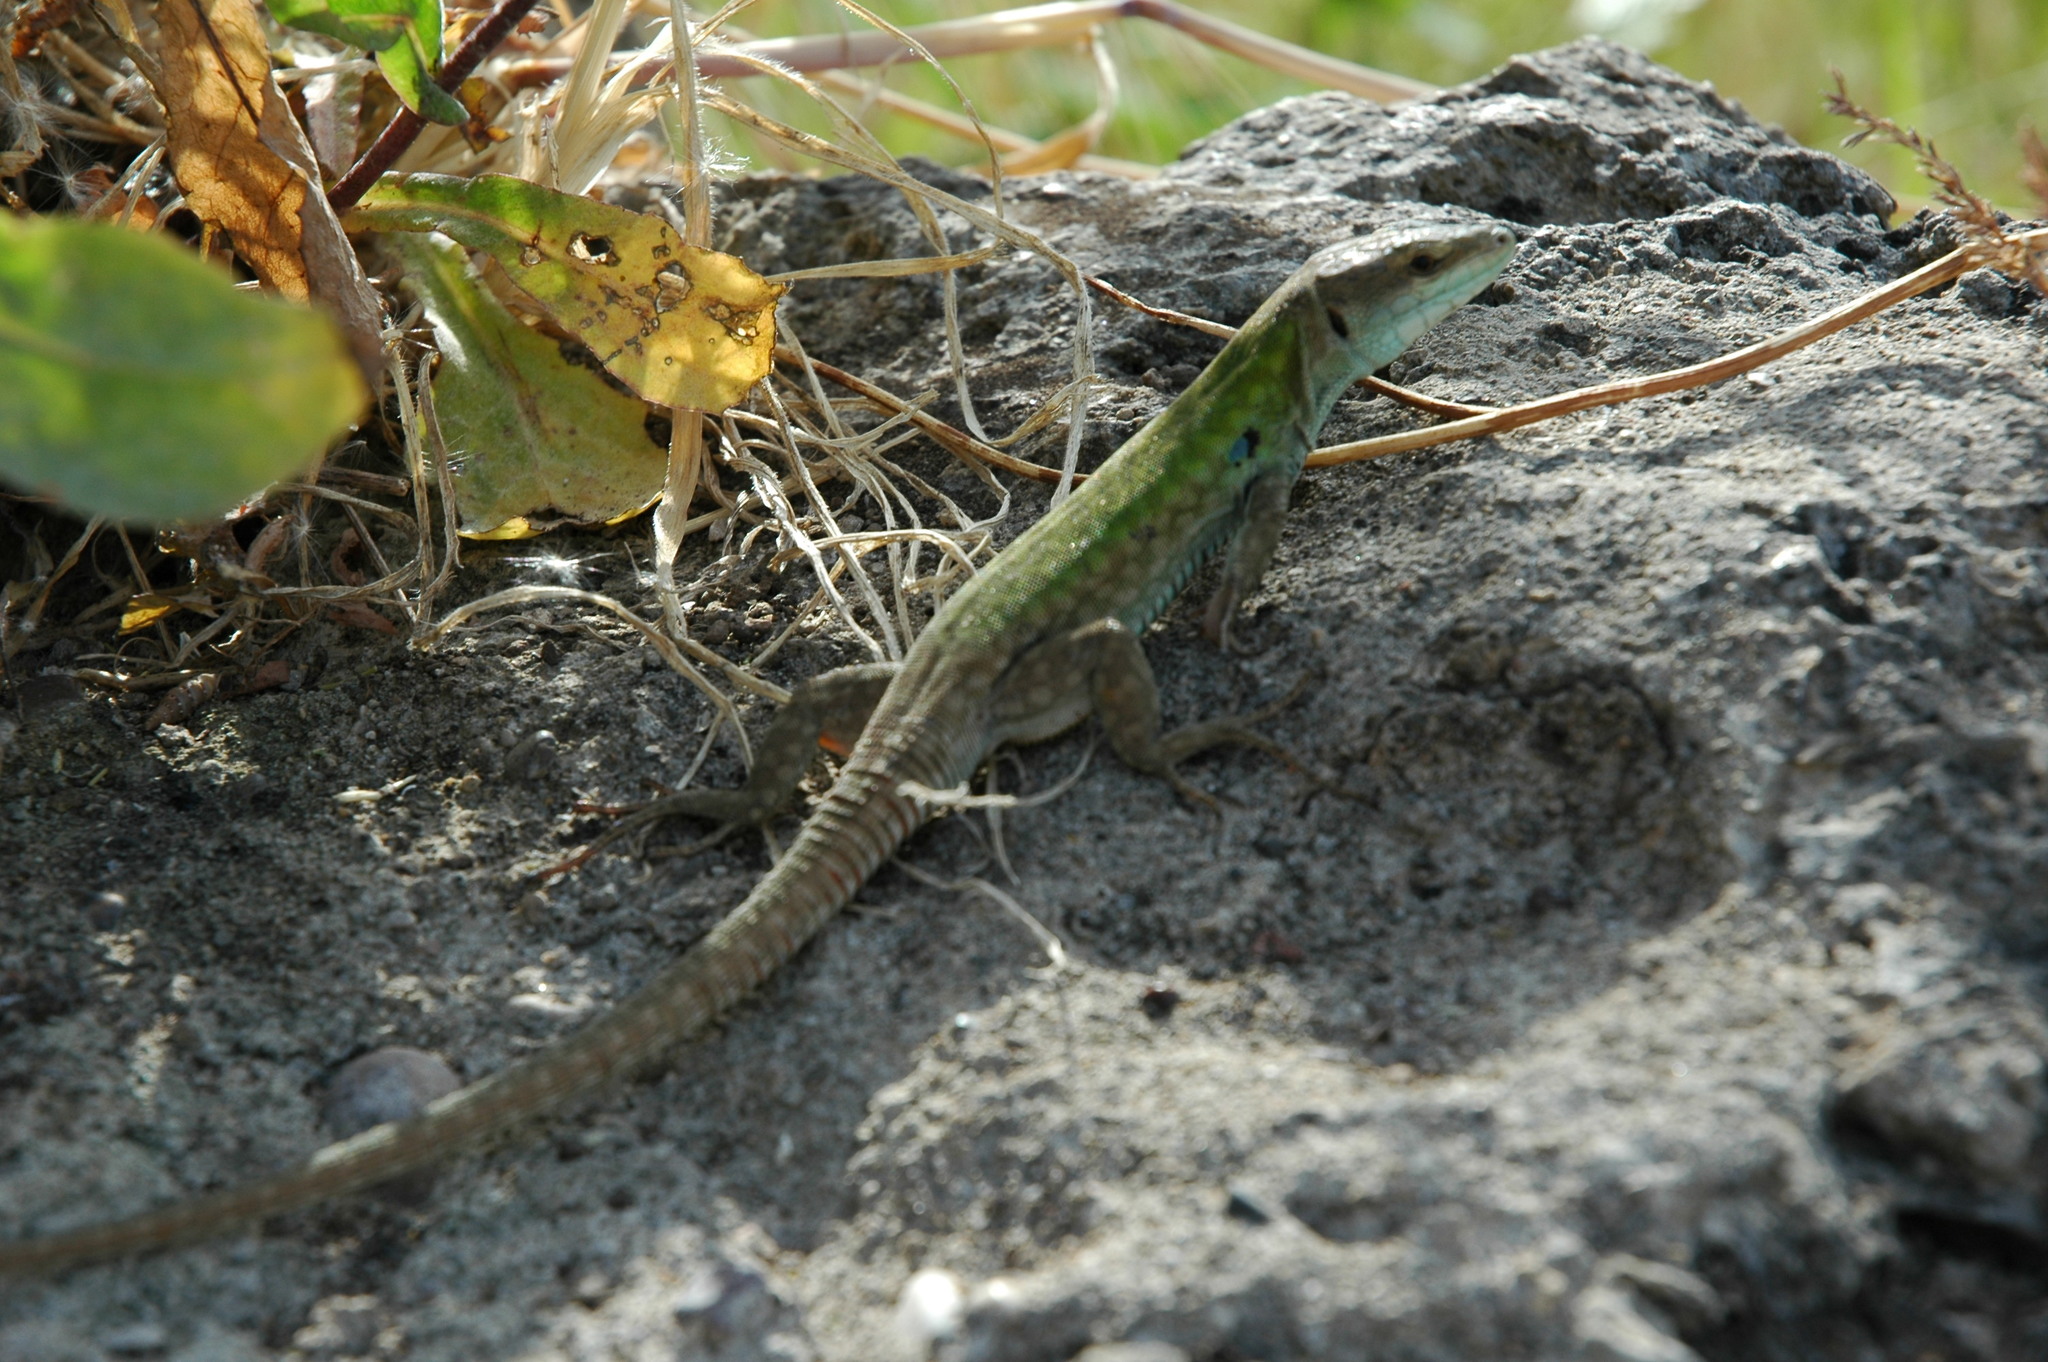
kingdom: Animalia
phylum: Chordata
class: Squamata
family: Lacertidae
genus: Podarcis
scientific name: Podarcis siculus
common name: Italian wall lizard
